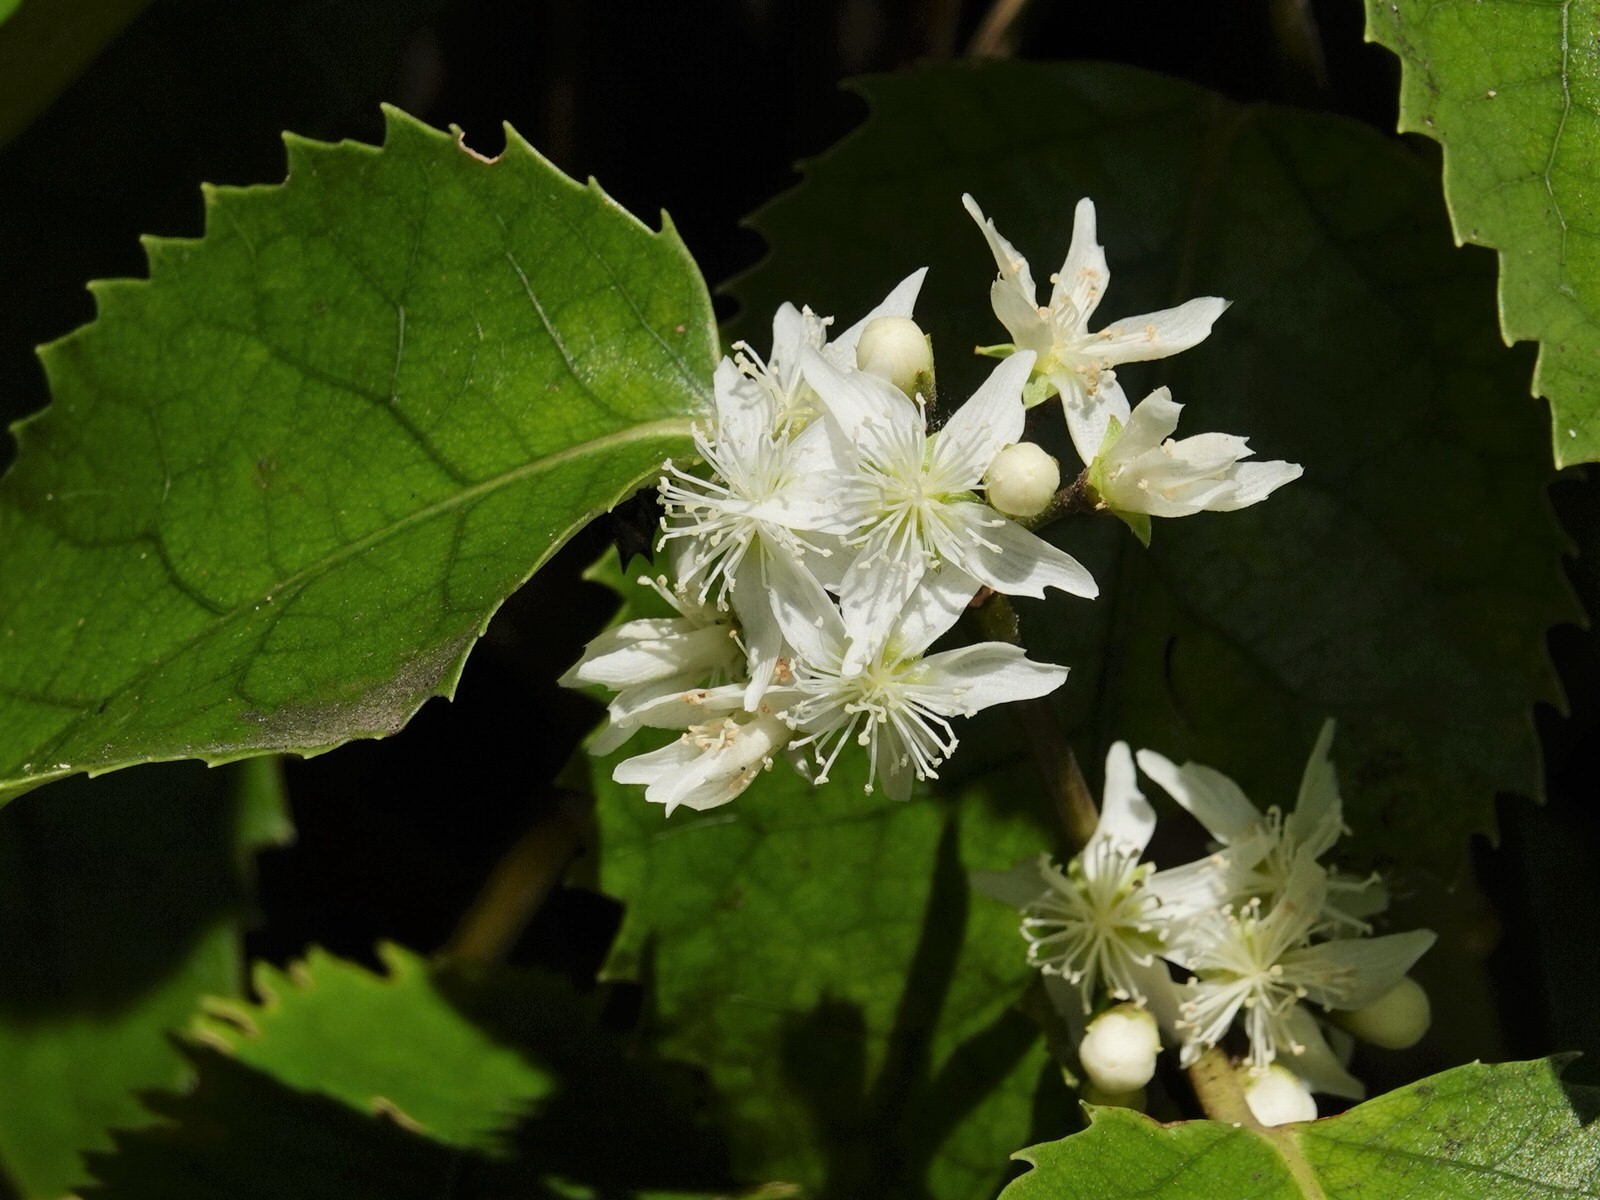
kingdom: Plantae
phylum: Tracheophyta
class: Magnoliopsida
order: Malvales
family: Malvaceae
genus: Hoheria
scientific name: Hoheria populnea
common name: Lacebark
